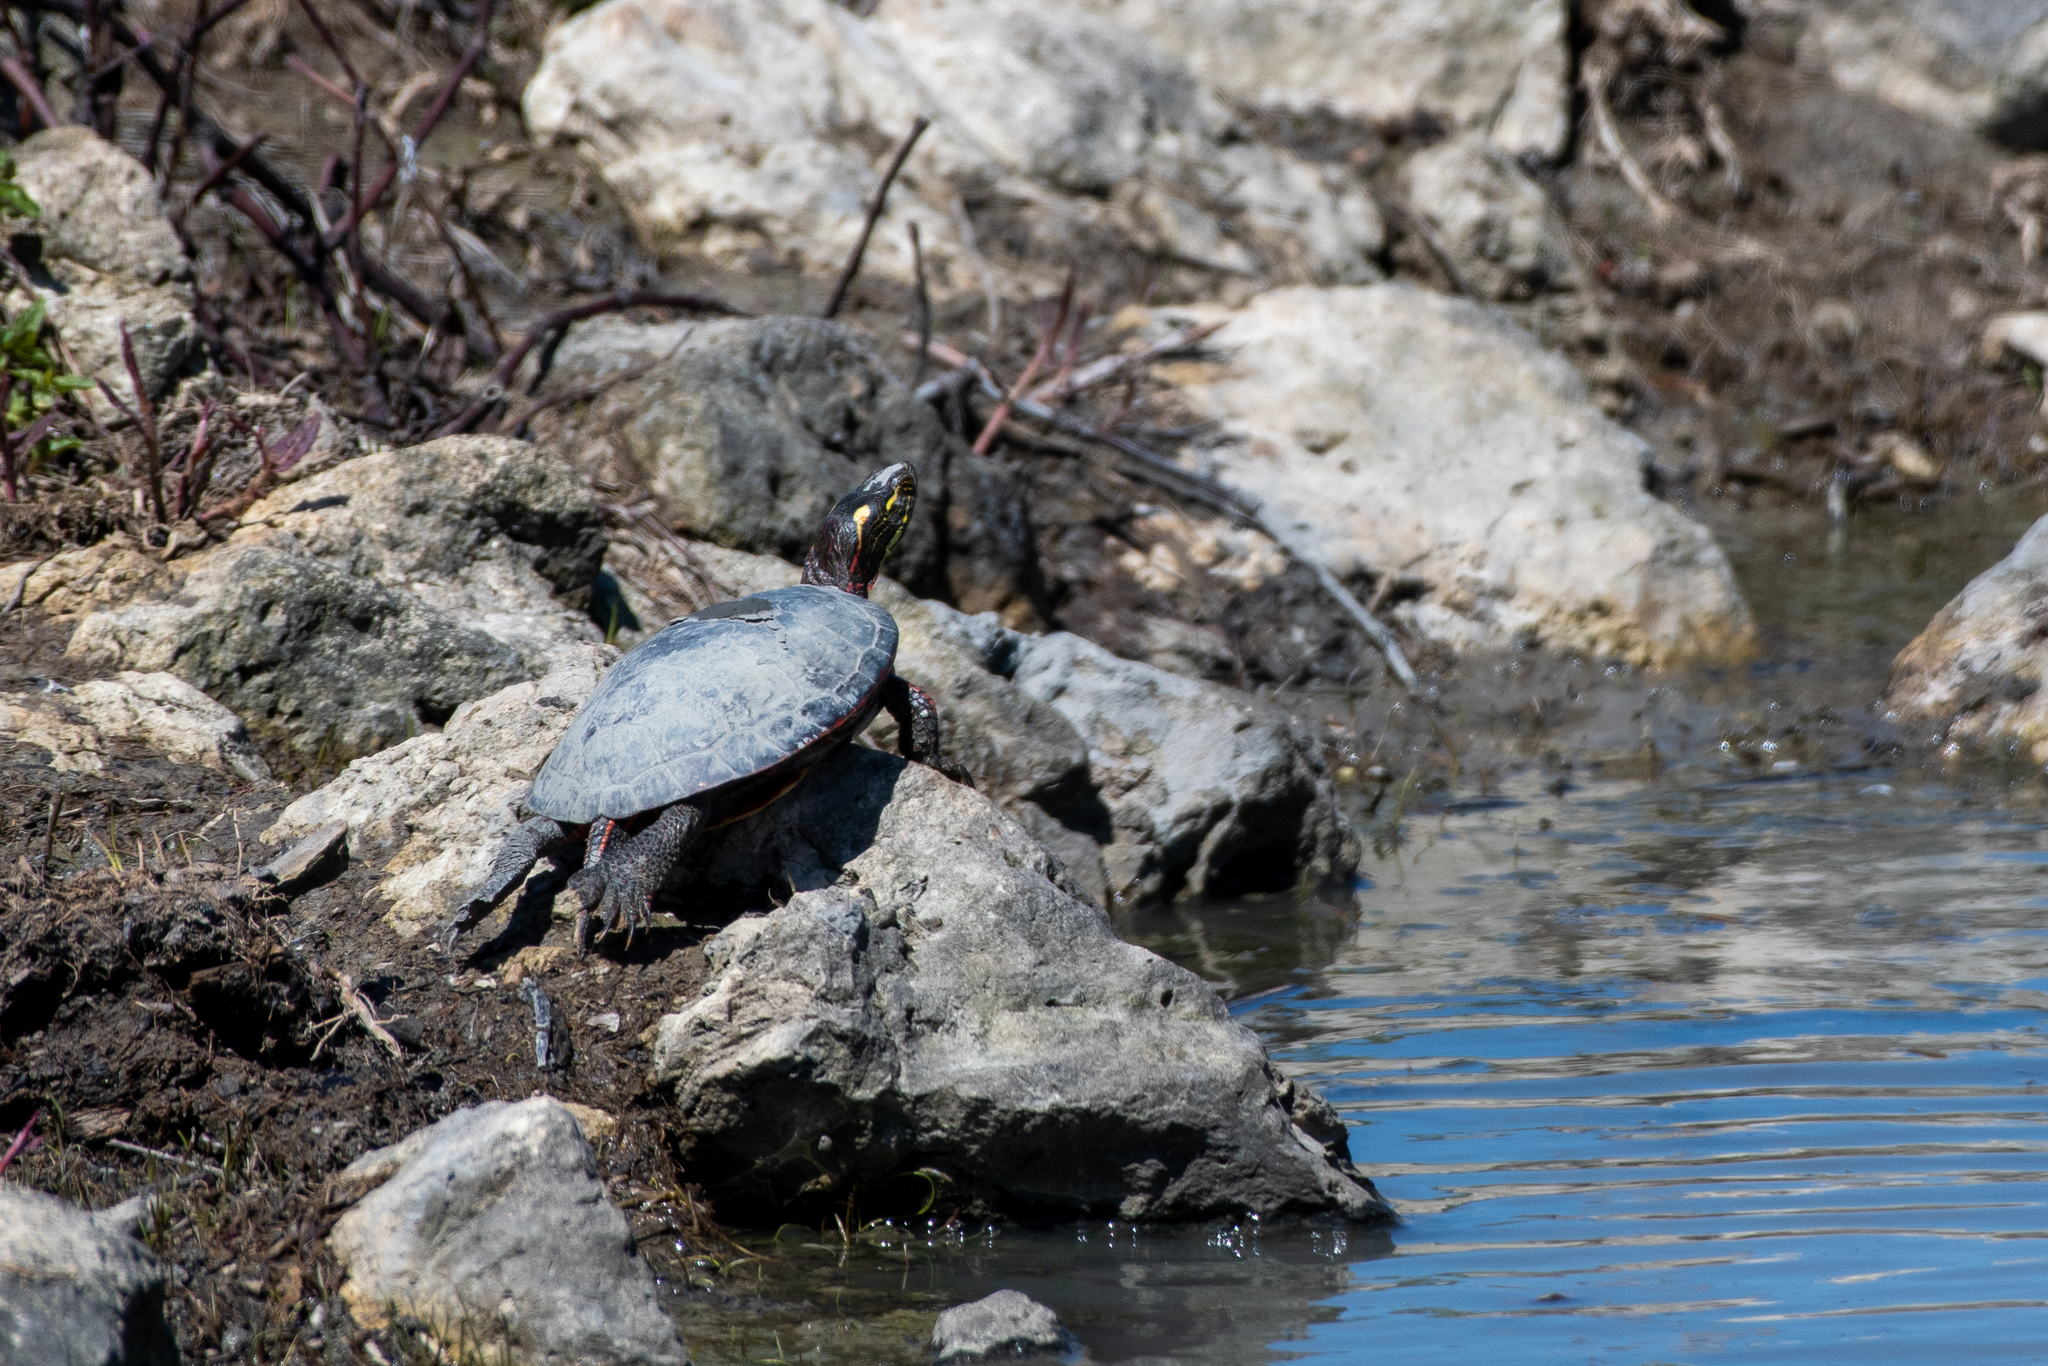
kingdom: Animalia
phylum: Chordata
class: Testudines
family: Emydidae
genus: Chrysemys
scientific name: Chrysemys picta
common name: Painted turtle
